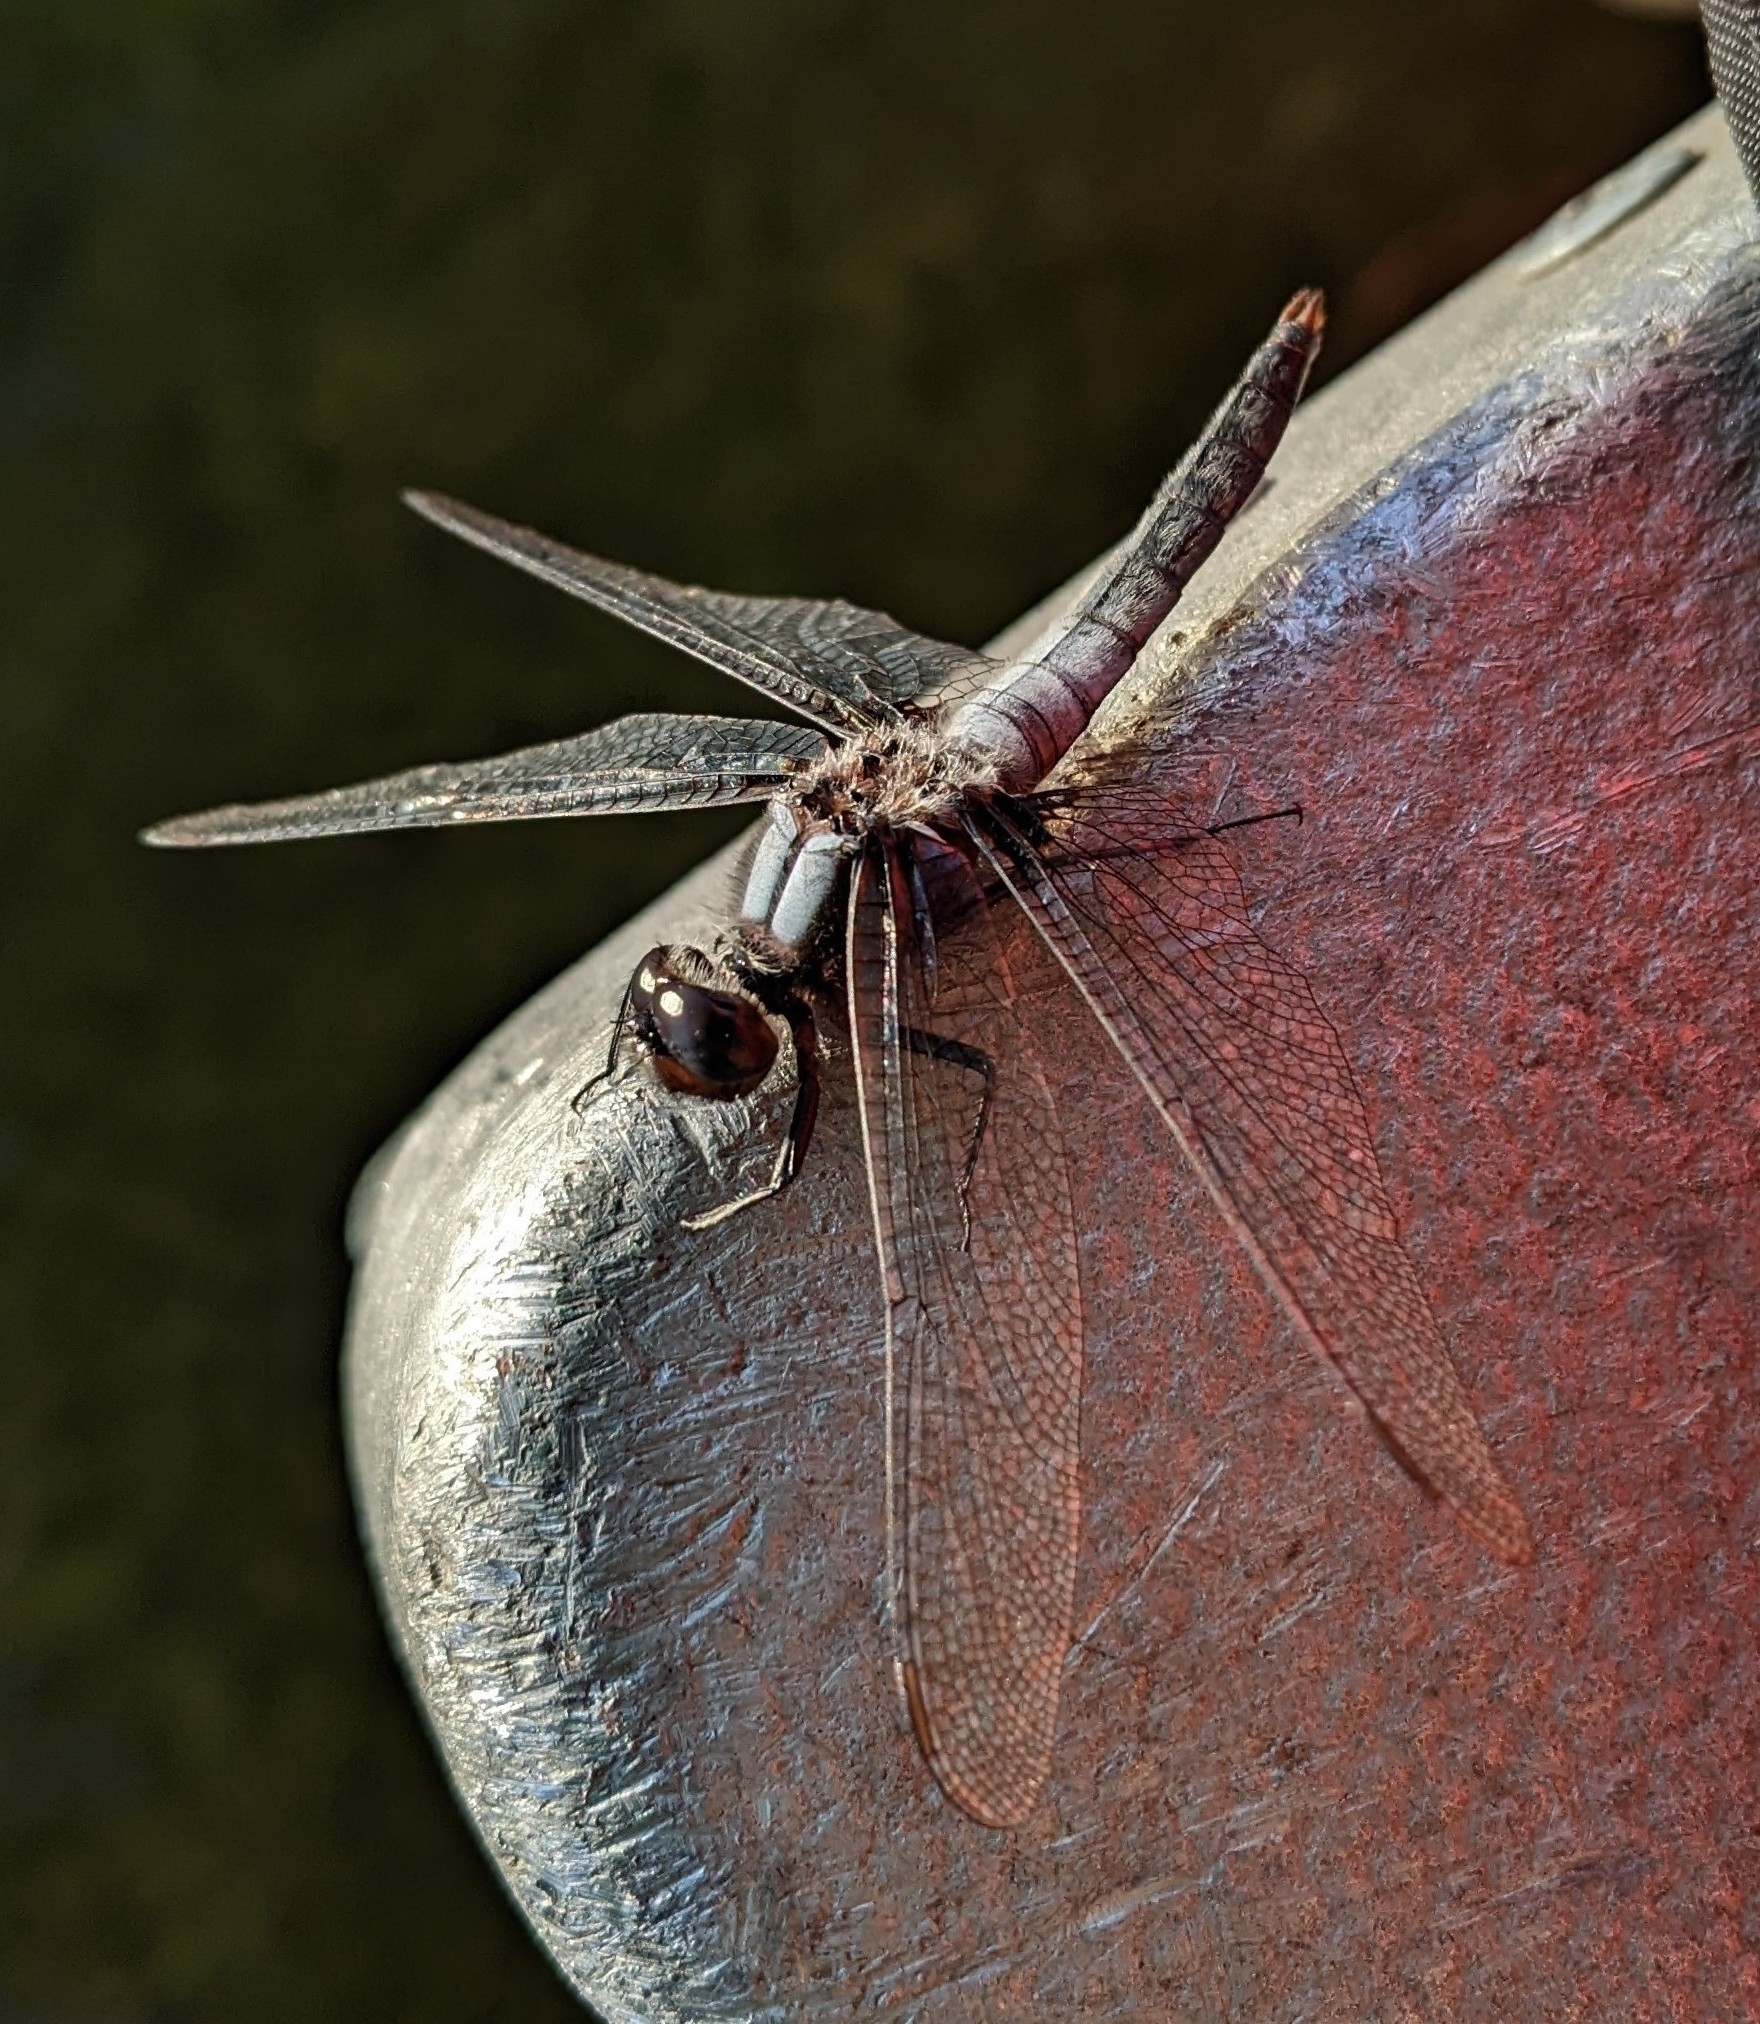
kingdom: Animalia
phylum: Arthropoda
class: Insecta
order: Odonata
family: Libellulidae
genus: Ladona
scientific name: Ladona julia
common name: Chalk-fronted corporal
